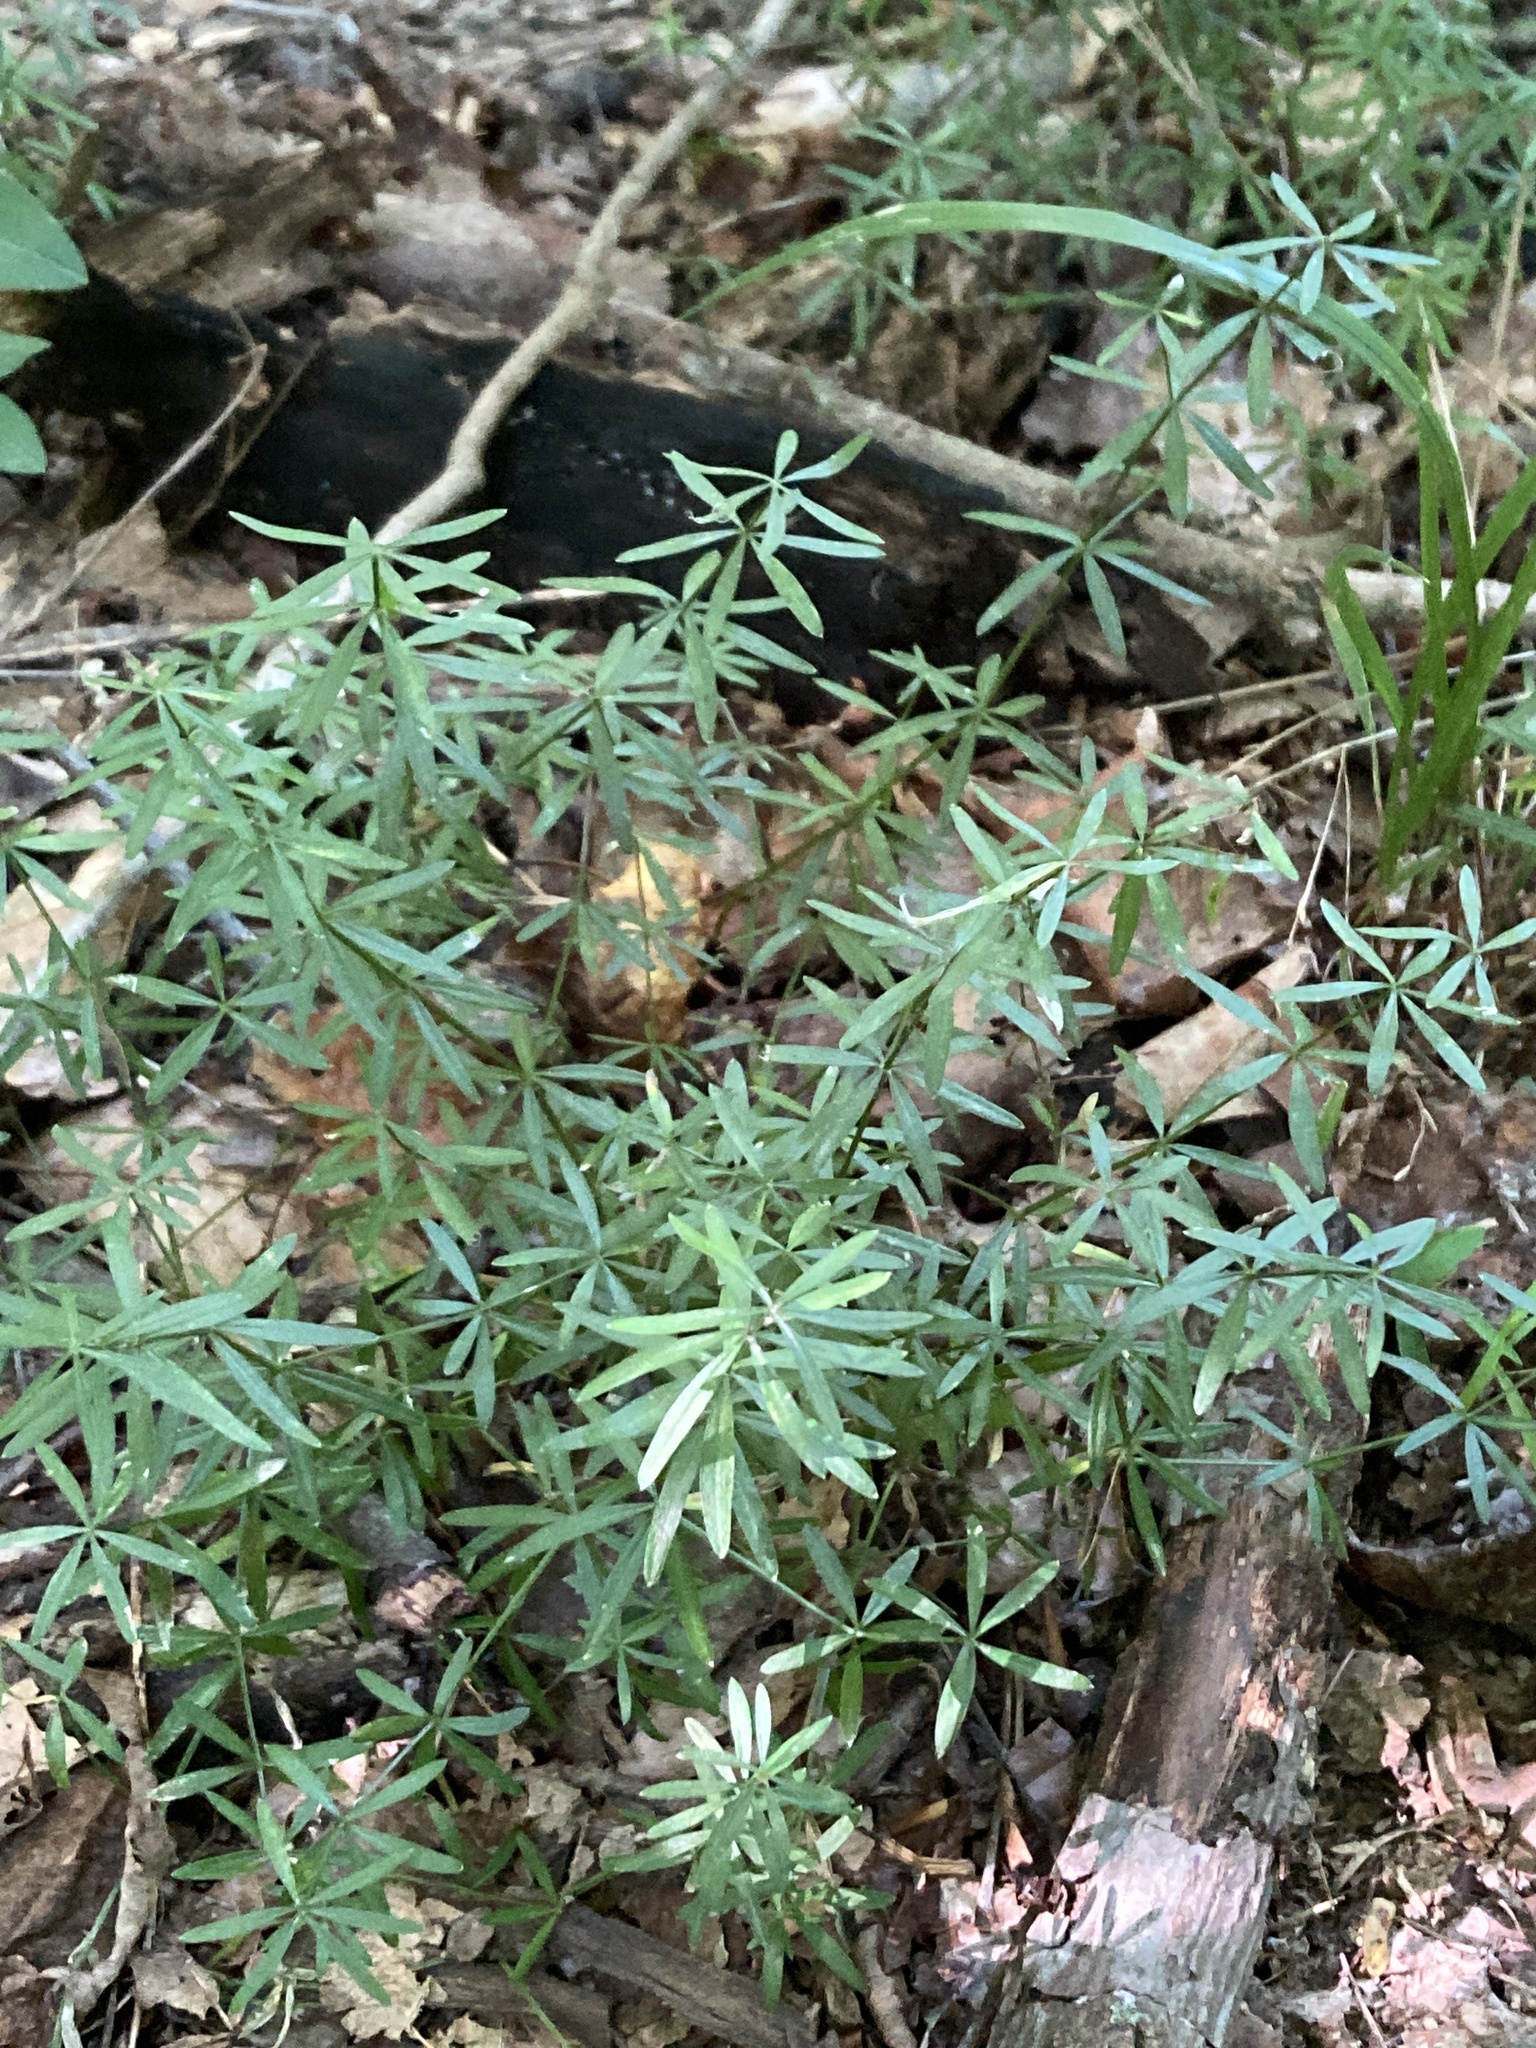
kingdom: Plantae
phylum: Tracheophyta
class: Magnoliopsida
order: Gentianales
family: Rubiaceae
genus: Galium
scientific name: Galium concinnum
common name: Shining bedstraw
